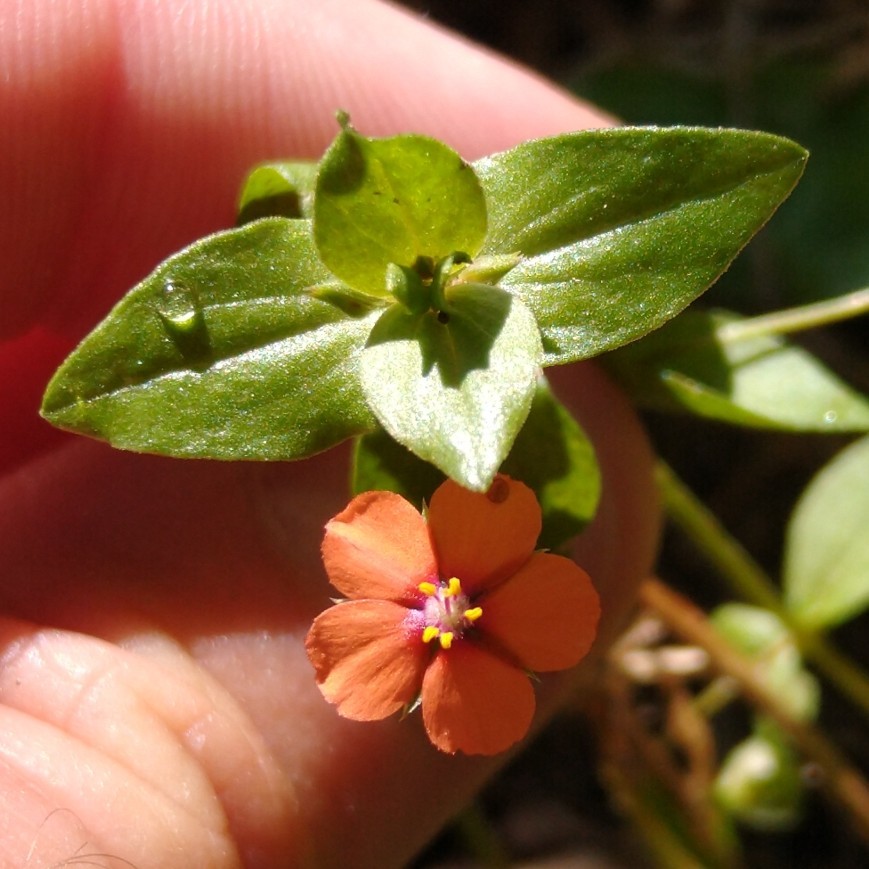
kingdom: Plantae
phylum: Tracheophyta
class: Magnoliopsida
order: Ericales
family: Primulaceae
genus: Lysimachia
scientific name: Lysimachia arvensis
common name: Scarlet pimpernel
